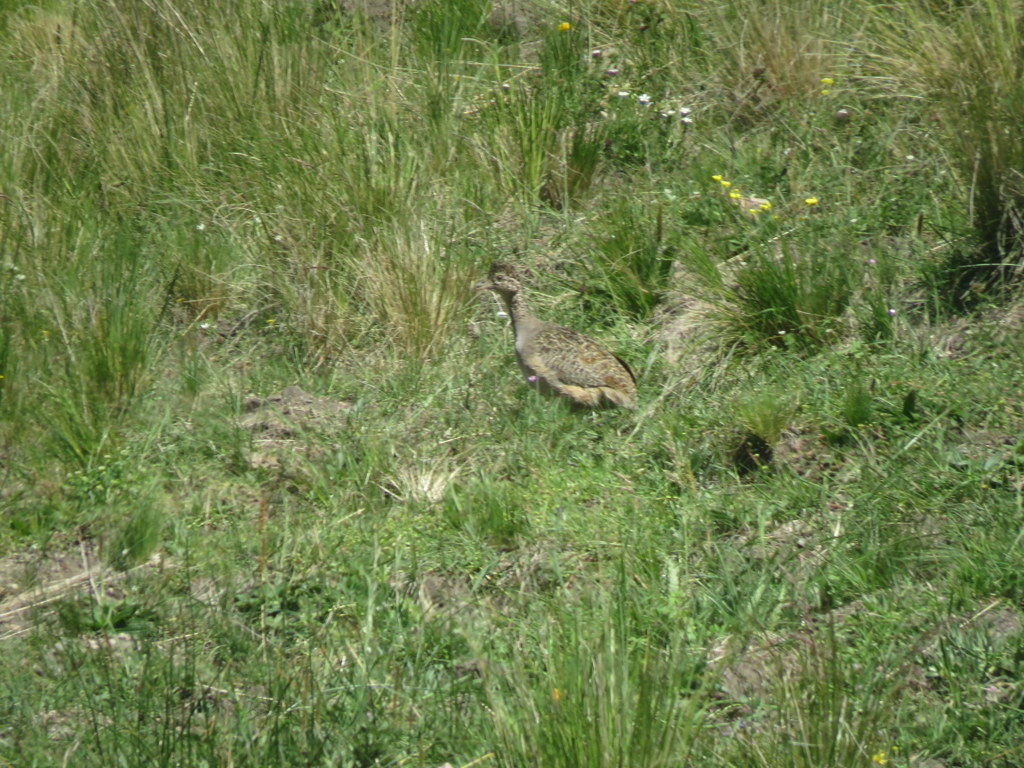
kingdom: Animalia
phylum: Chordata
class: Aves
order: Tinamiformes
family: Tinamidae
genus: Nothoprocta
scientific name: Nothoprocta ornata
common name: Ornate tinamou
